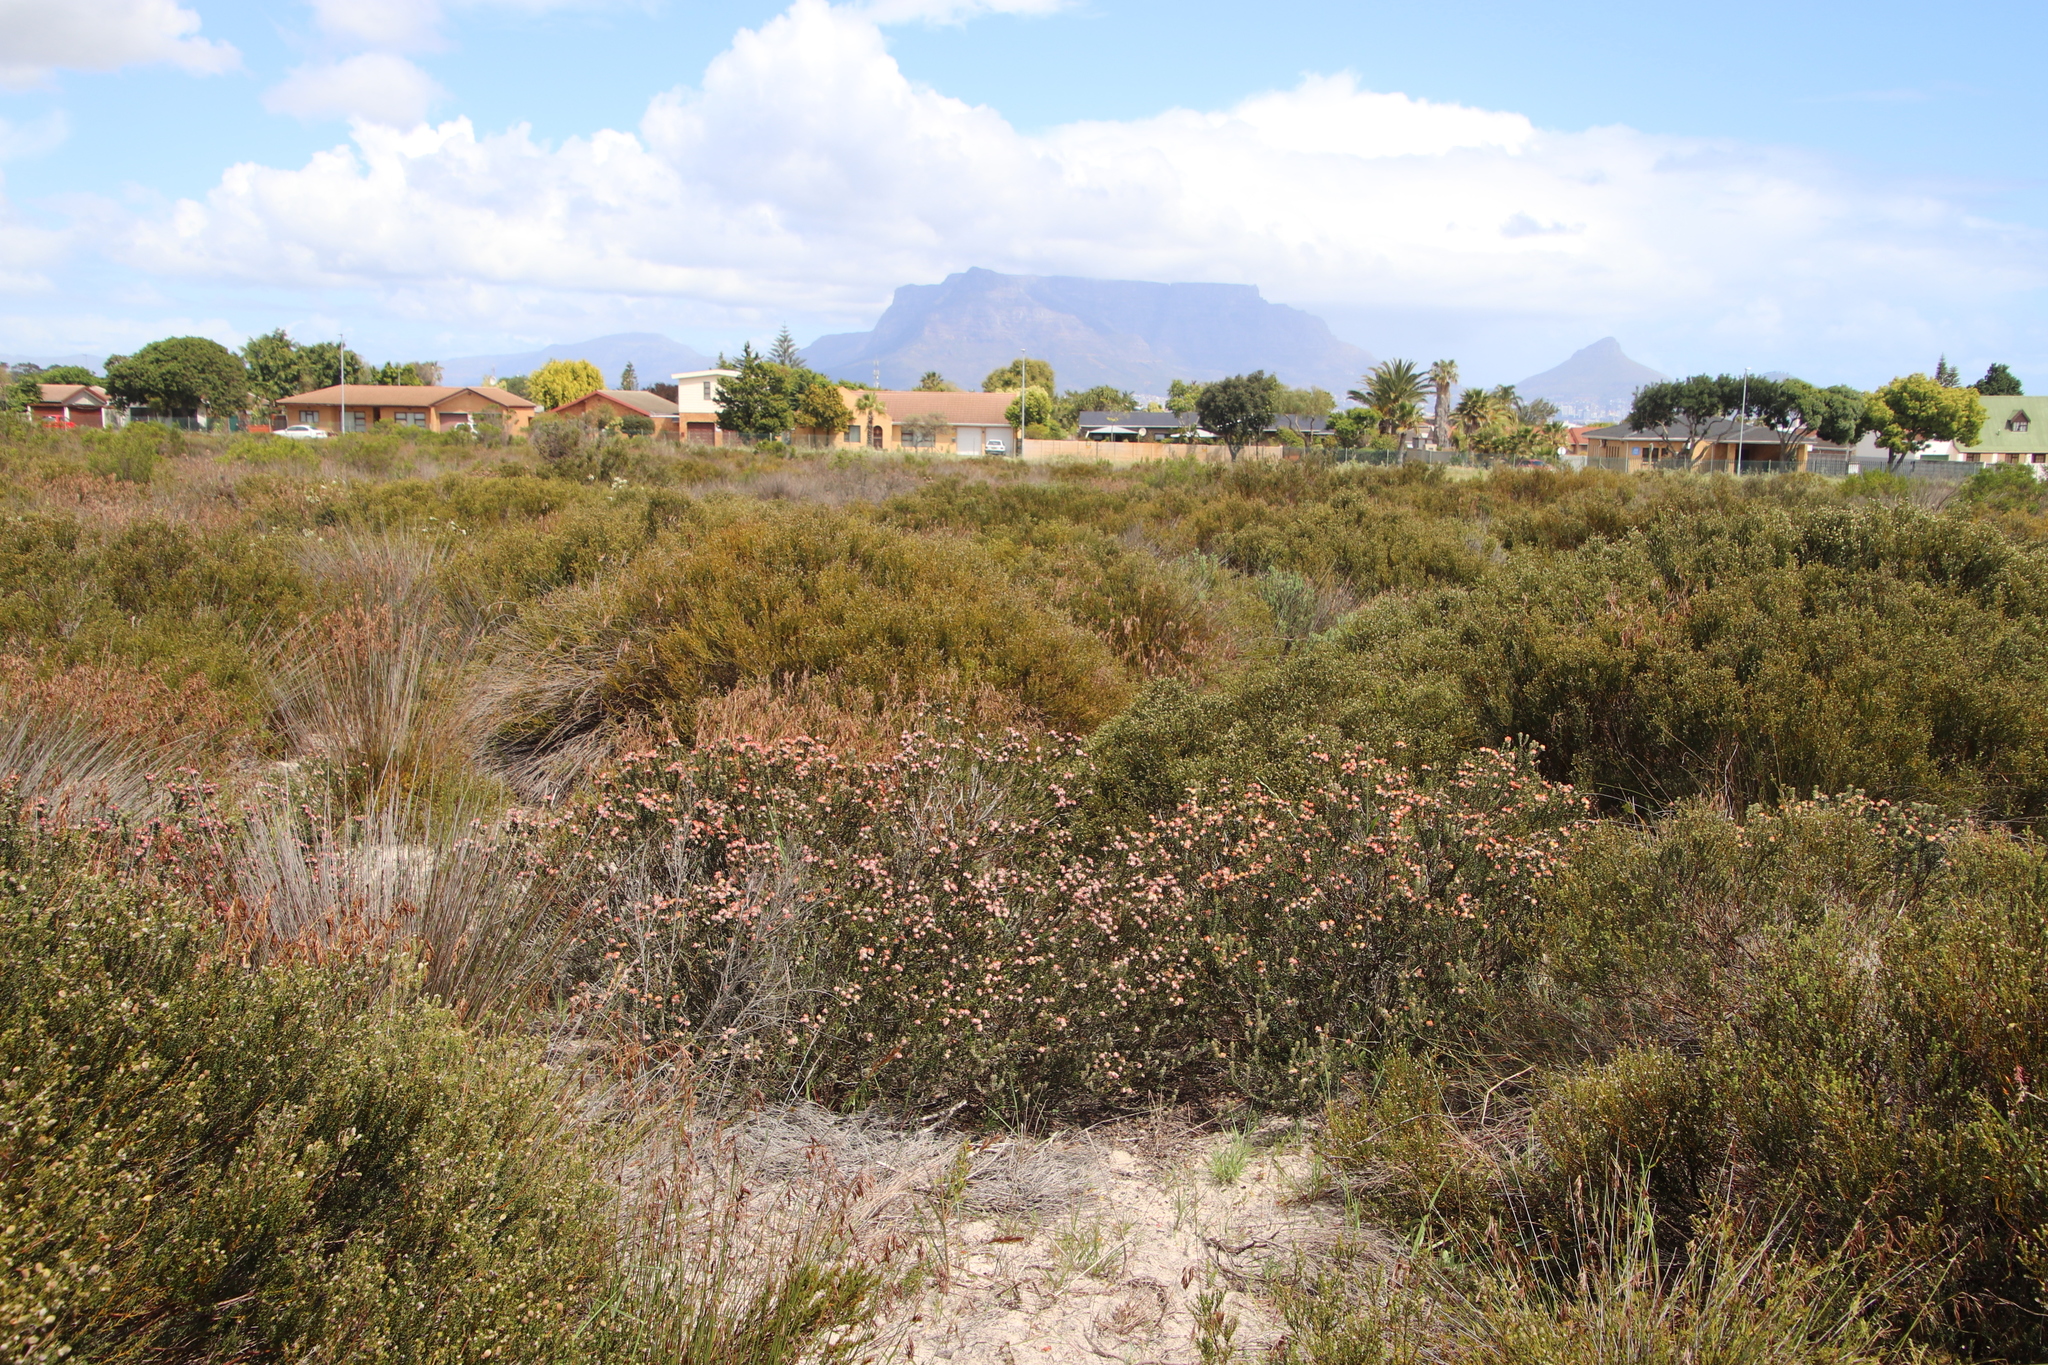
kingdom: Plantae
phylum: Tracheophyta
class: Magnoliopsida
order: Rosales
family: Rhamnaceae
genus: Trichocephalus
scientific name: Trichocephalus stipularis
